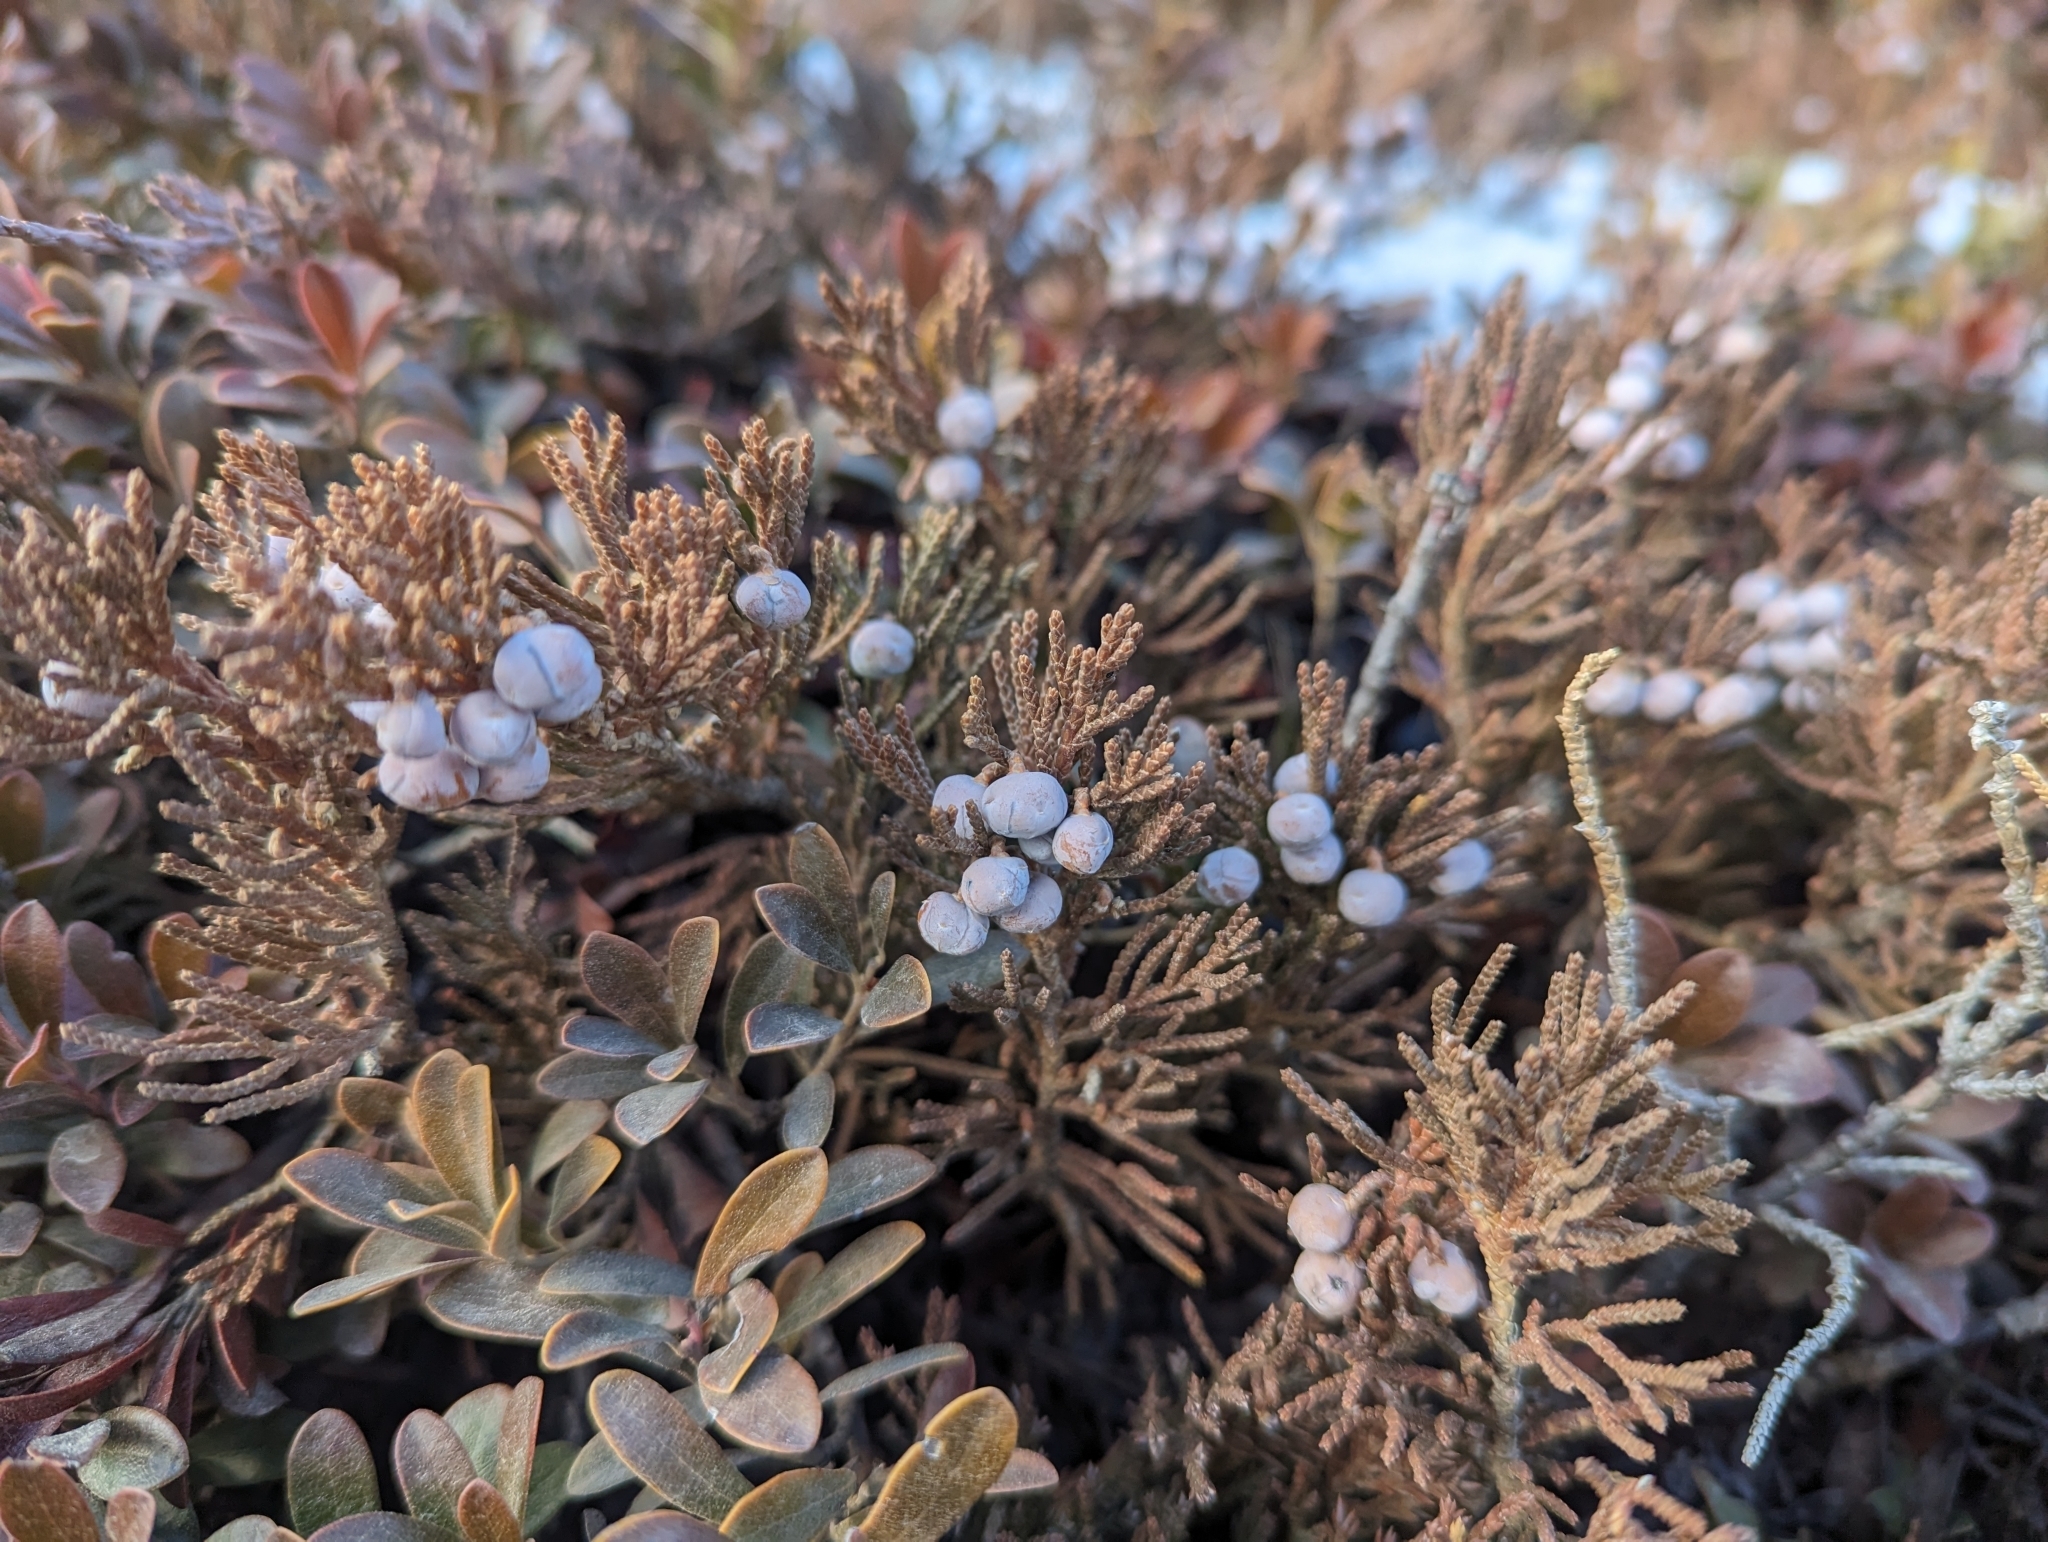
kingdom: Plantae
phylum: Tracheophyta
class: Pinopsida
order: Pinales
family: Cupressaceae
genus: Juniperus
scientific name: Juniperus horizontalis
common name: Creeping juniper
